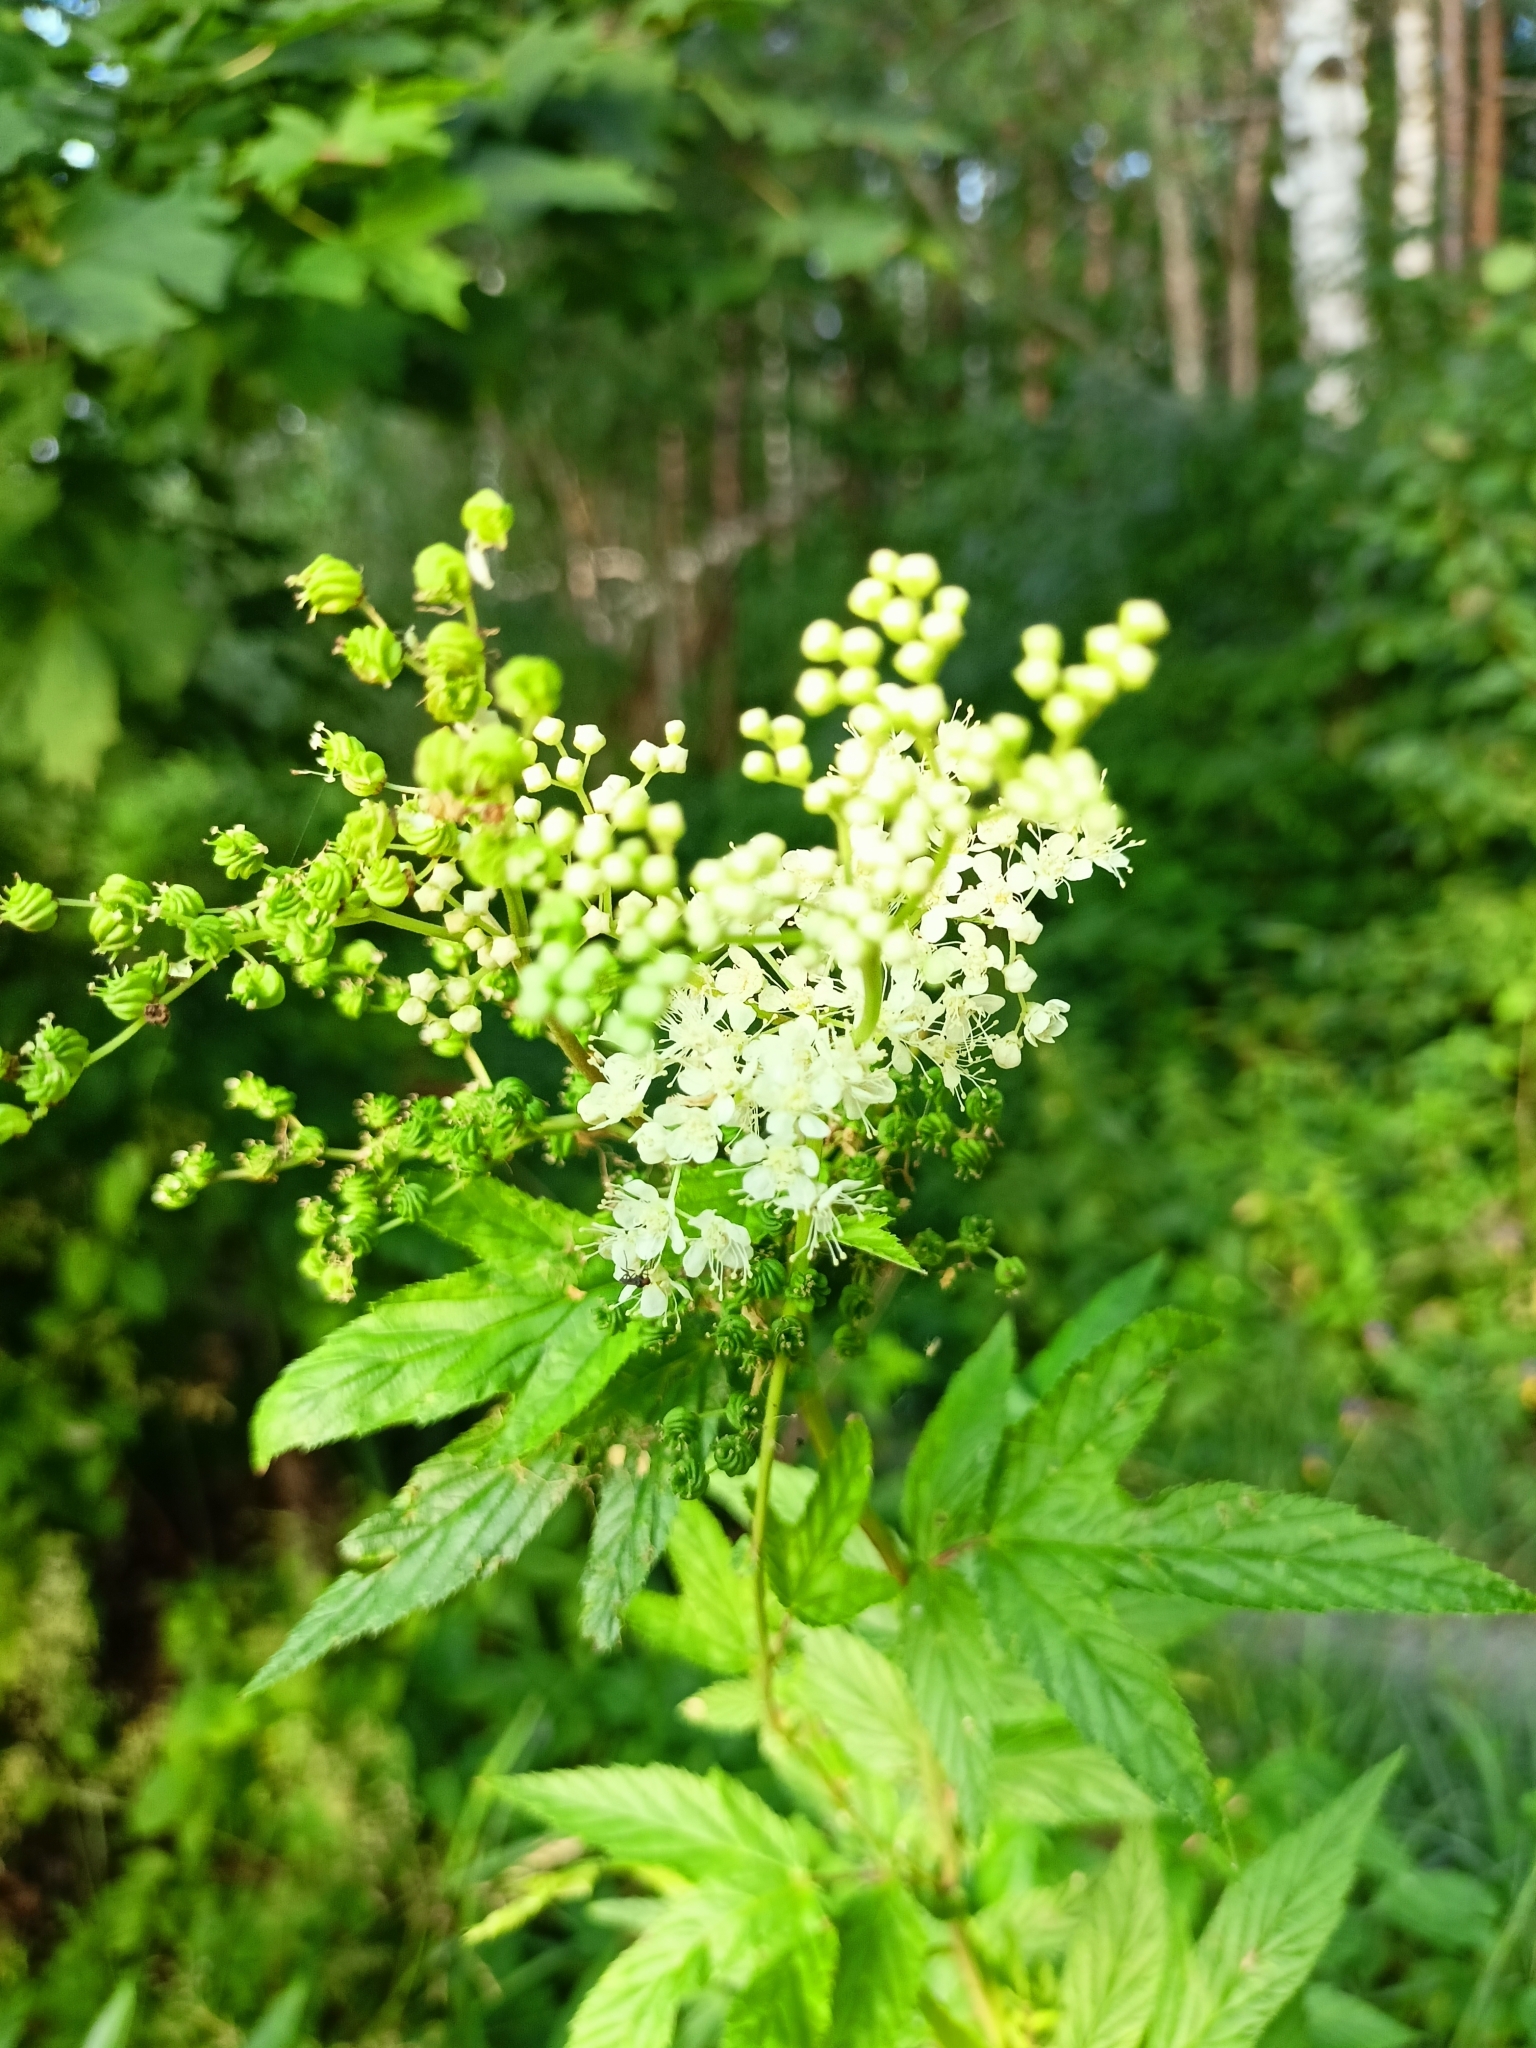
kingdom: Plantae
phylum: Tracheophyta
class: Magnoliopsida
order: Rosales
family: Rosaceae
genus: Filipendula
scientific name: Filipendula ulmaria
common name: Meadowsweet
